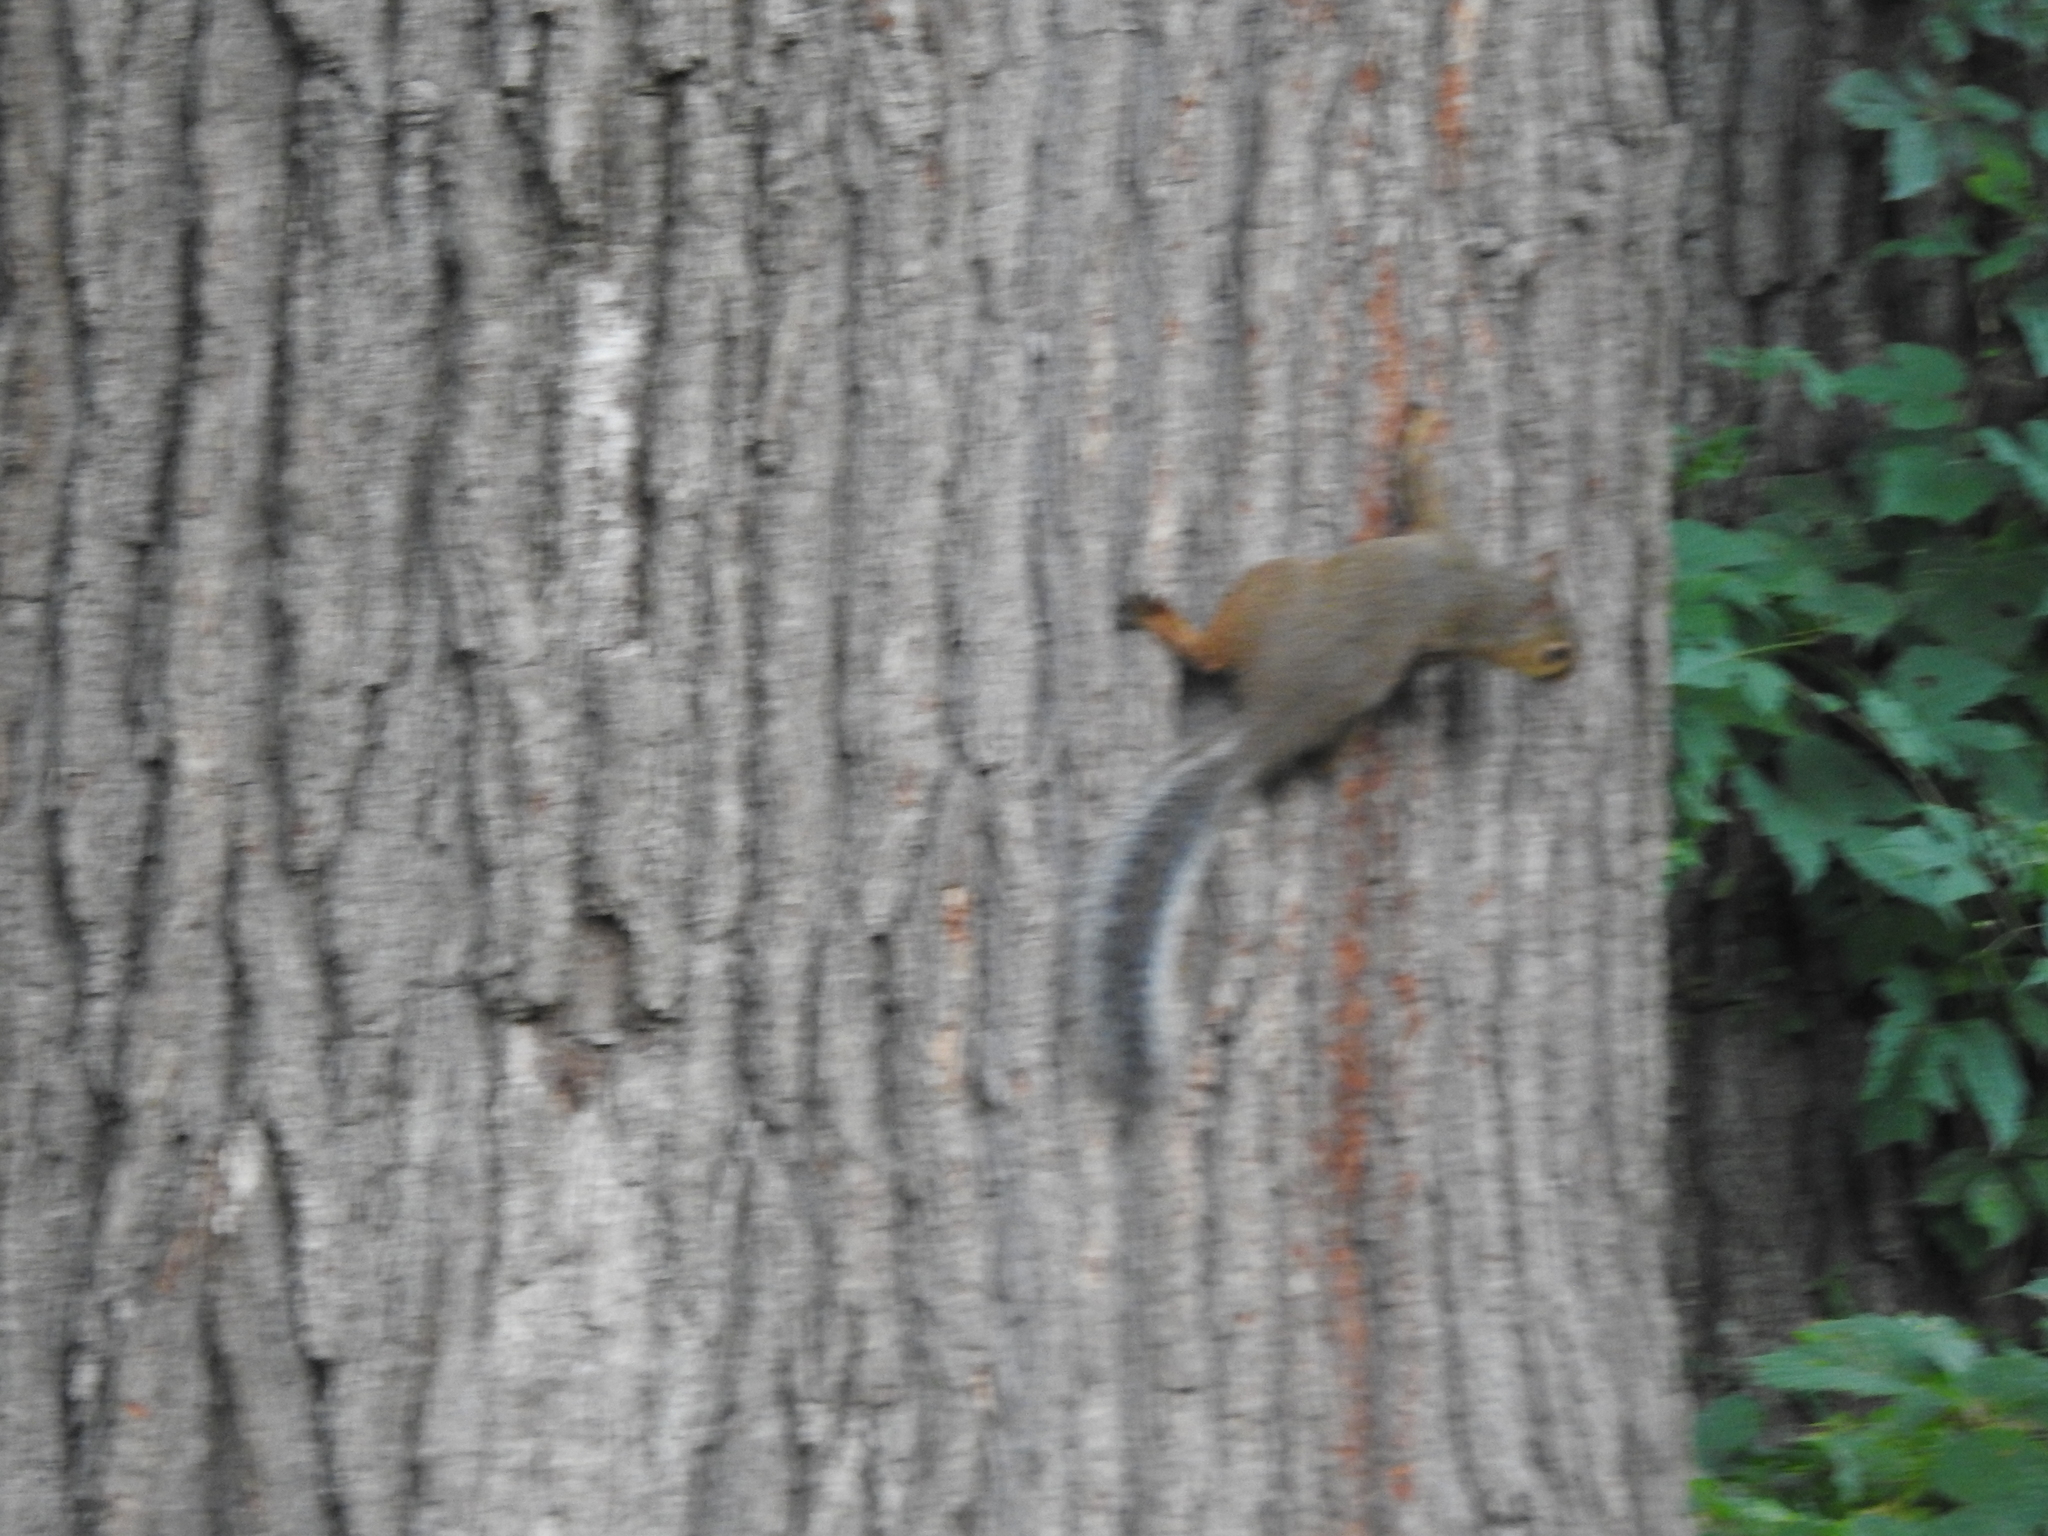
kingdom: Animalia
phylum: Chordata
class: Mammalia
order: Rodentia
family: Sciuridae
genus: Sciurus
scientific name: Sciurus carolinensis
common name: Eastern gray squirrel
